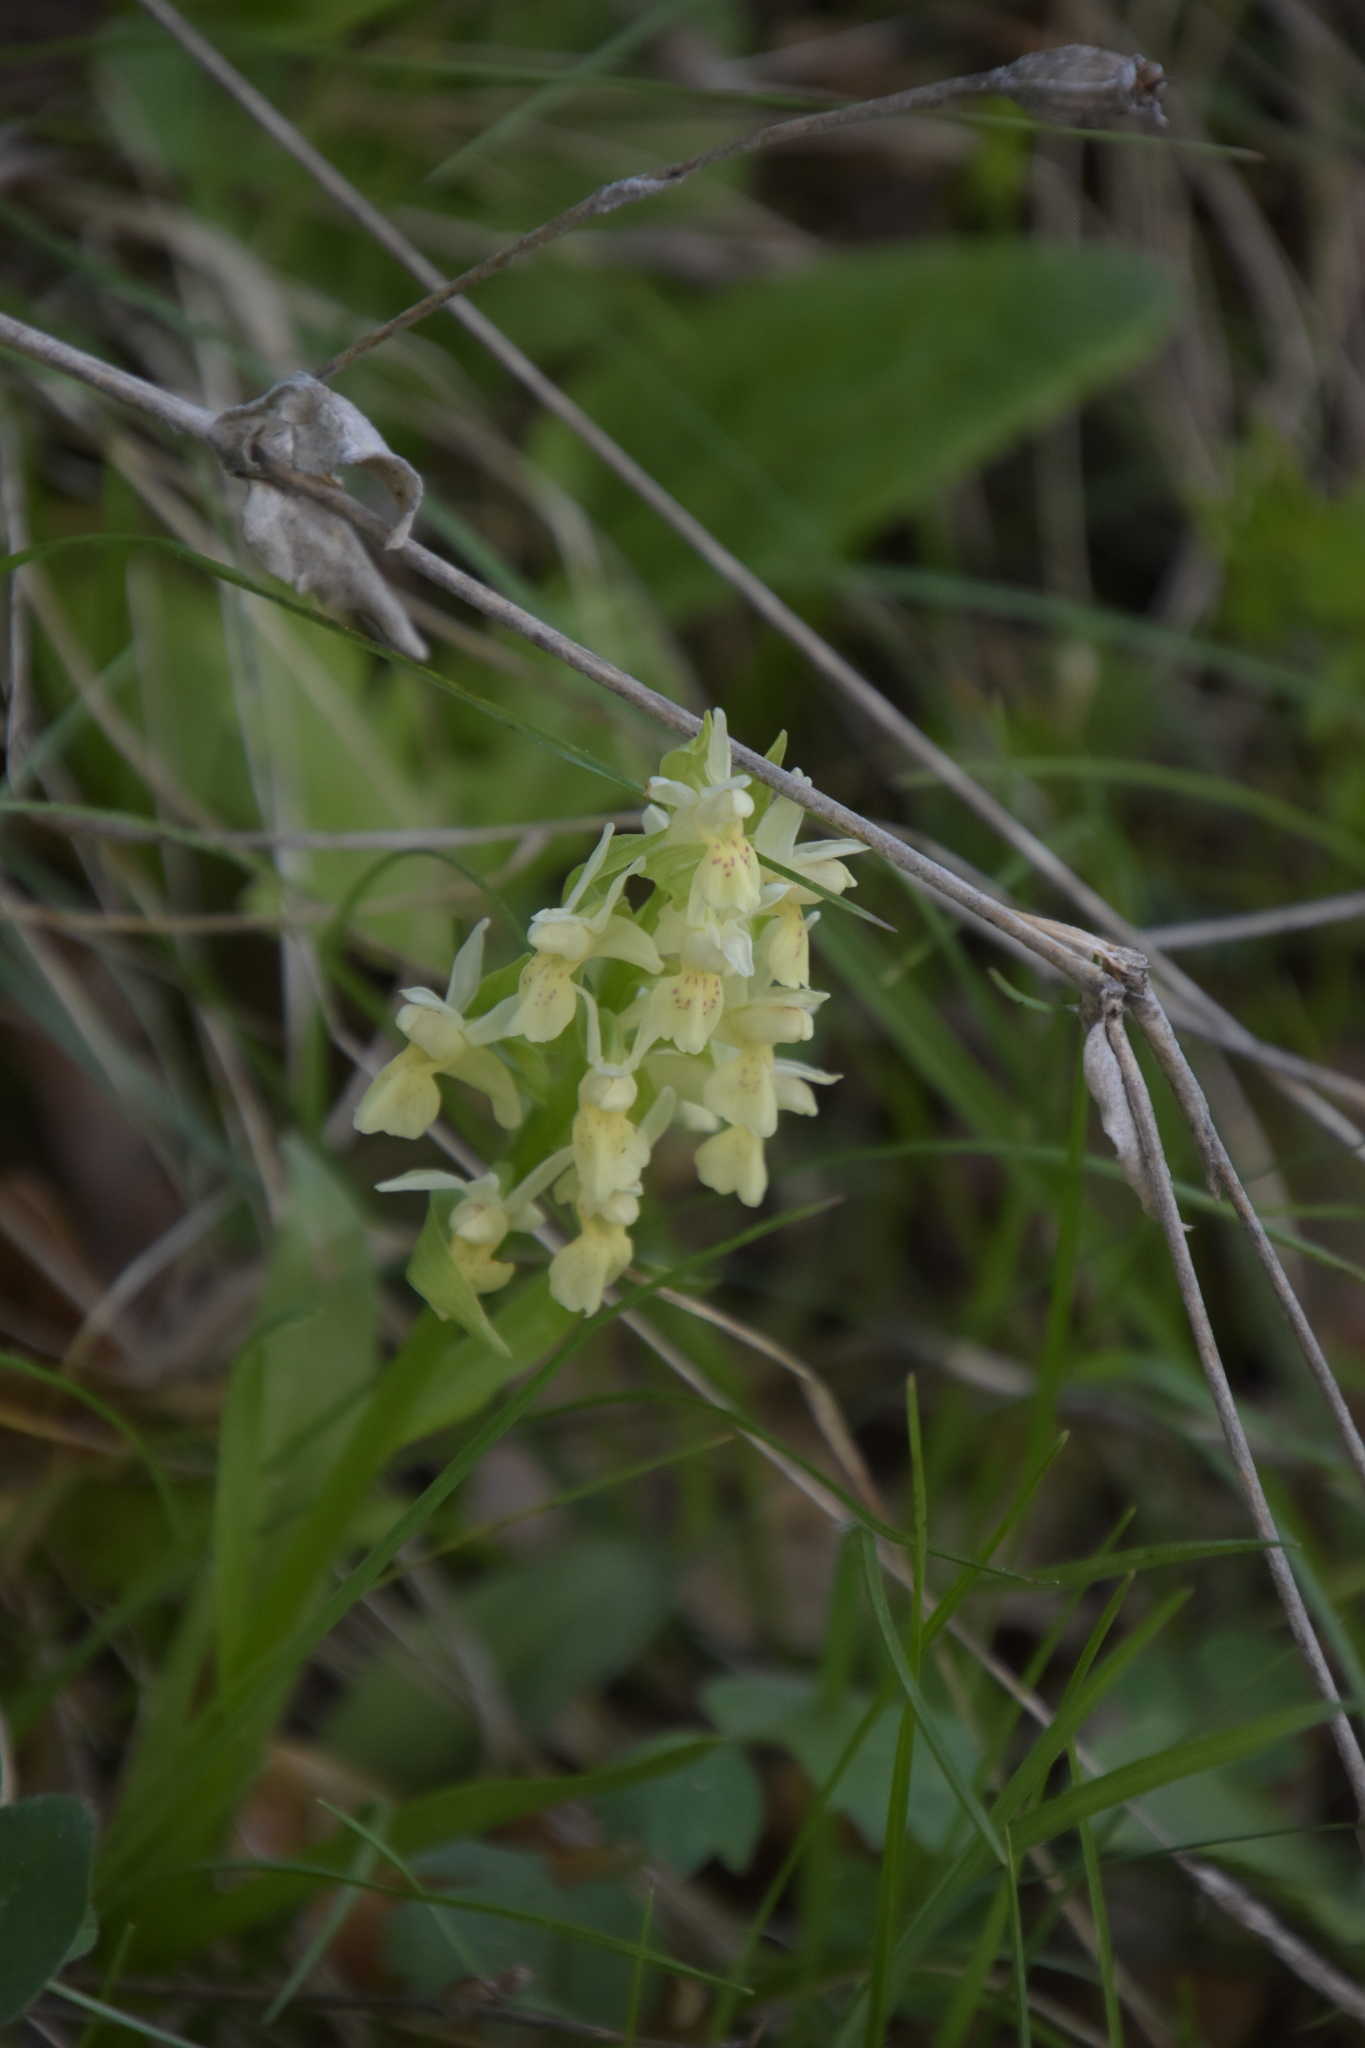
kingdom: Plantae
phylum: Tracheophyta
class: Liliopsida
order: Asparagales
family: Orchidaceae
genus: Dactylorhiza
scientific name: Dactylorhiza sambucina
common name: Elder-flowered orchid
